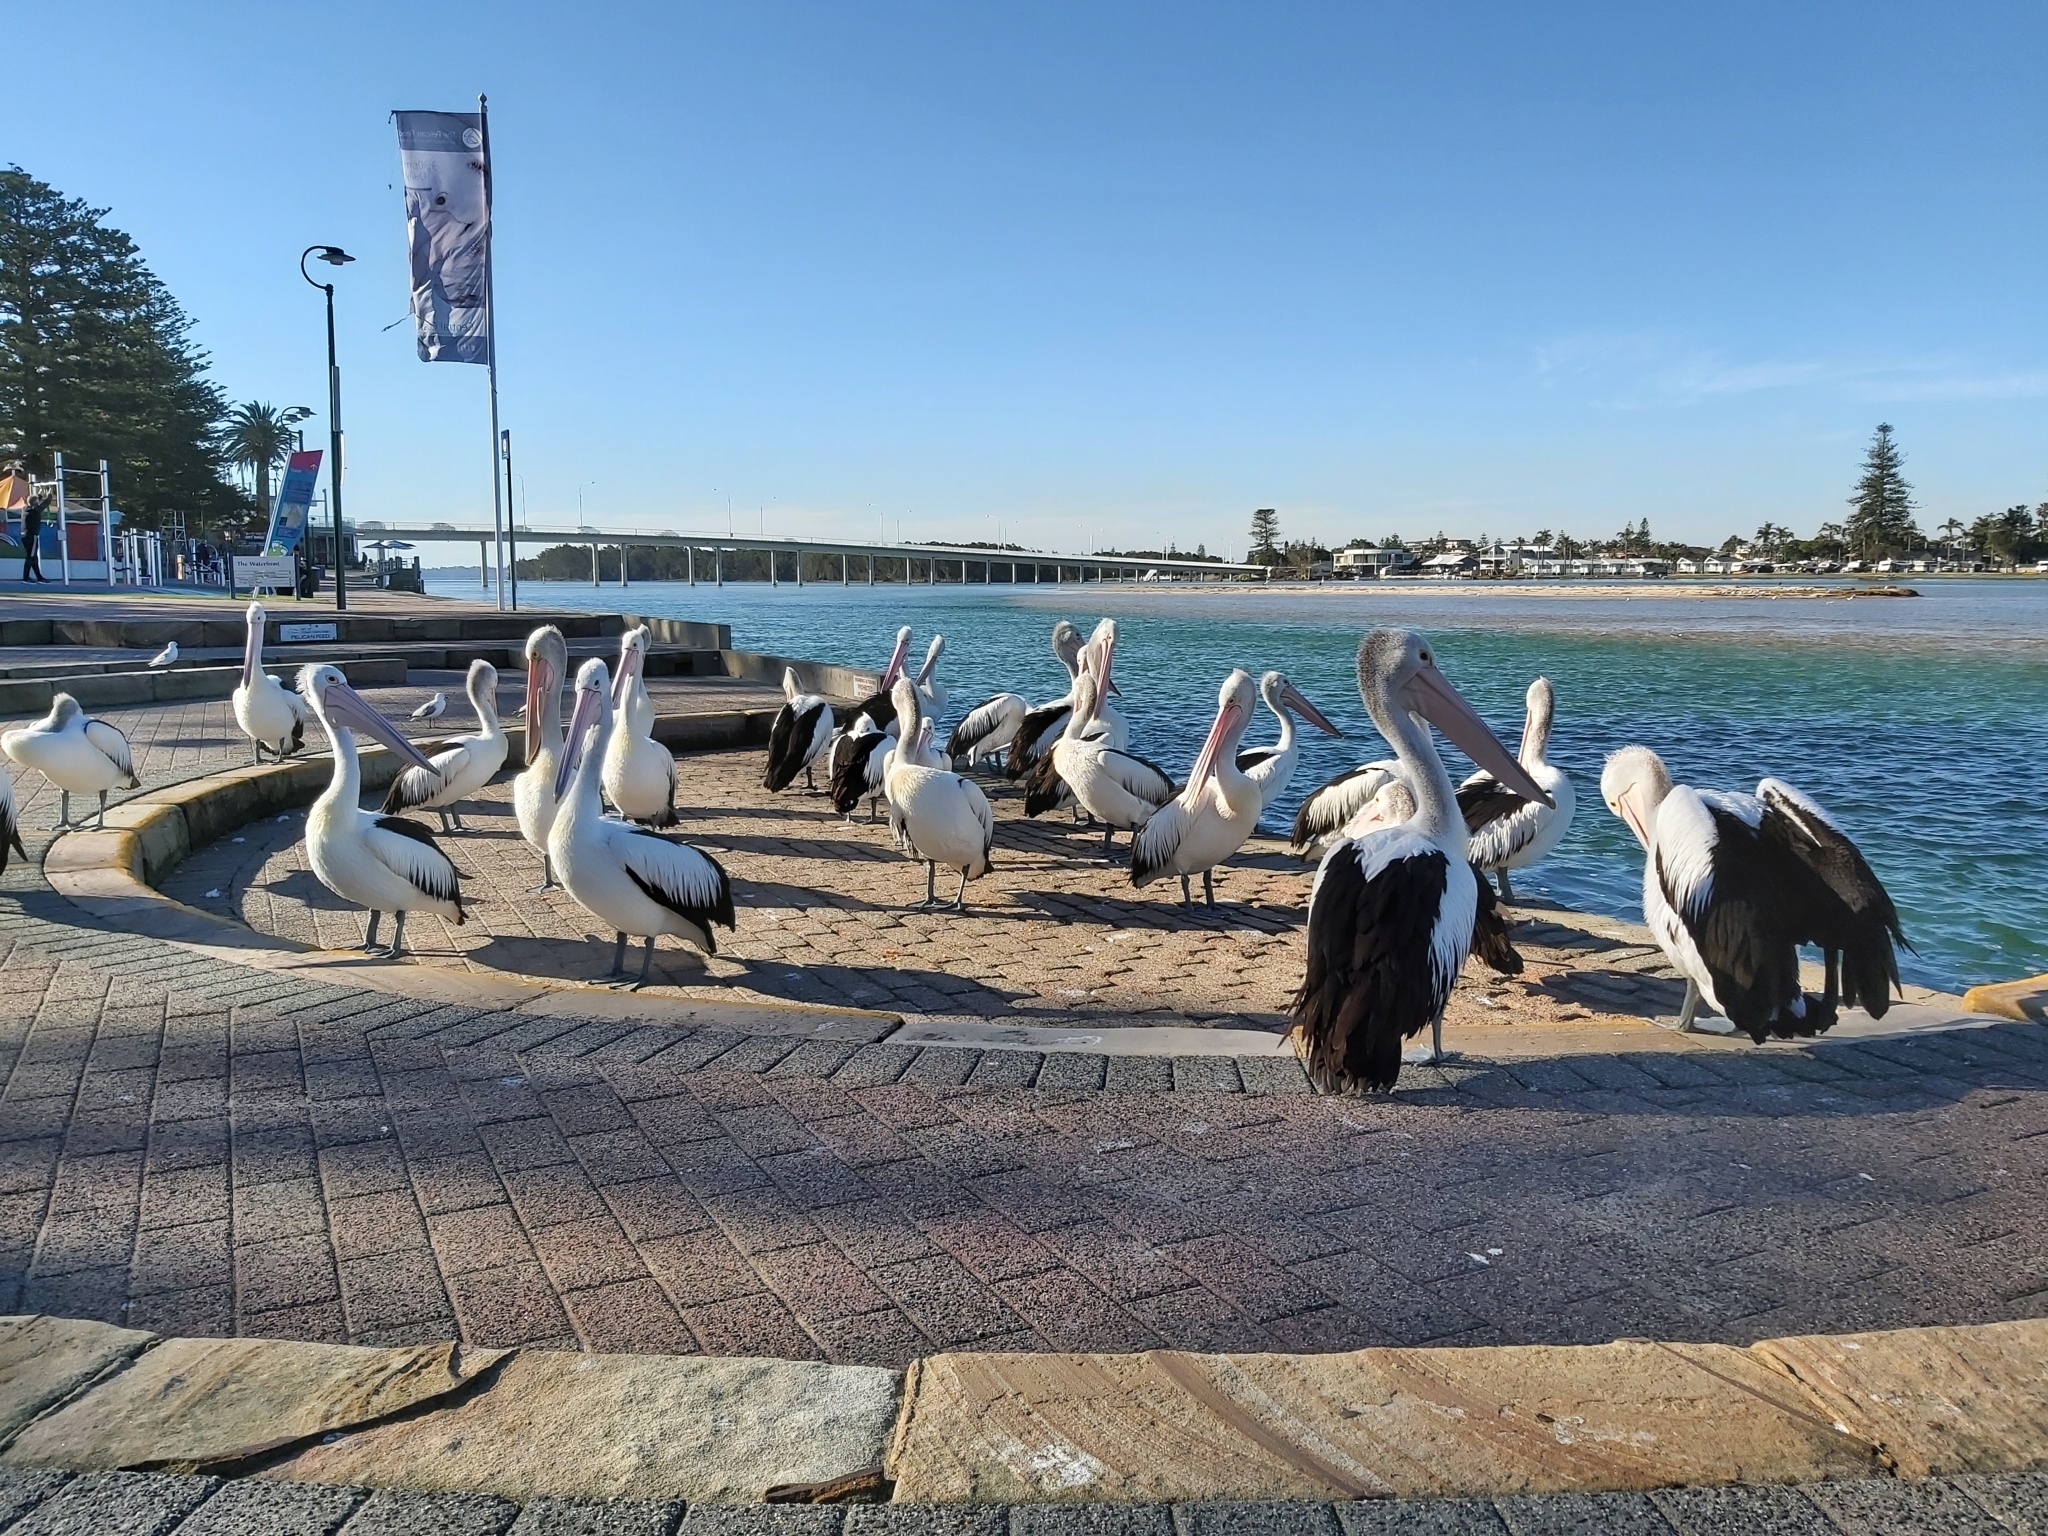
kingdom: Animalia
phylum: Chordata
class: Aves
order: Pelecaniformes
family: Pelecanidae
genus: Pelecanus
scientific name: Pelecanus conspicillatus
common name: Australian pelican
